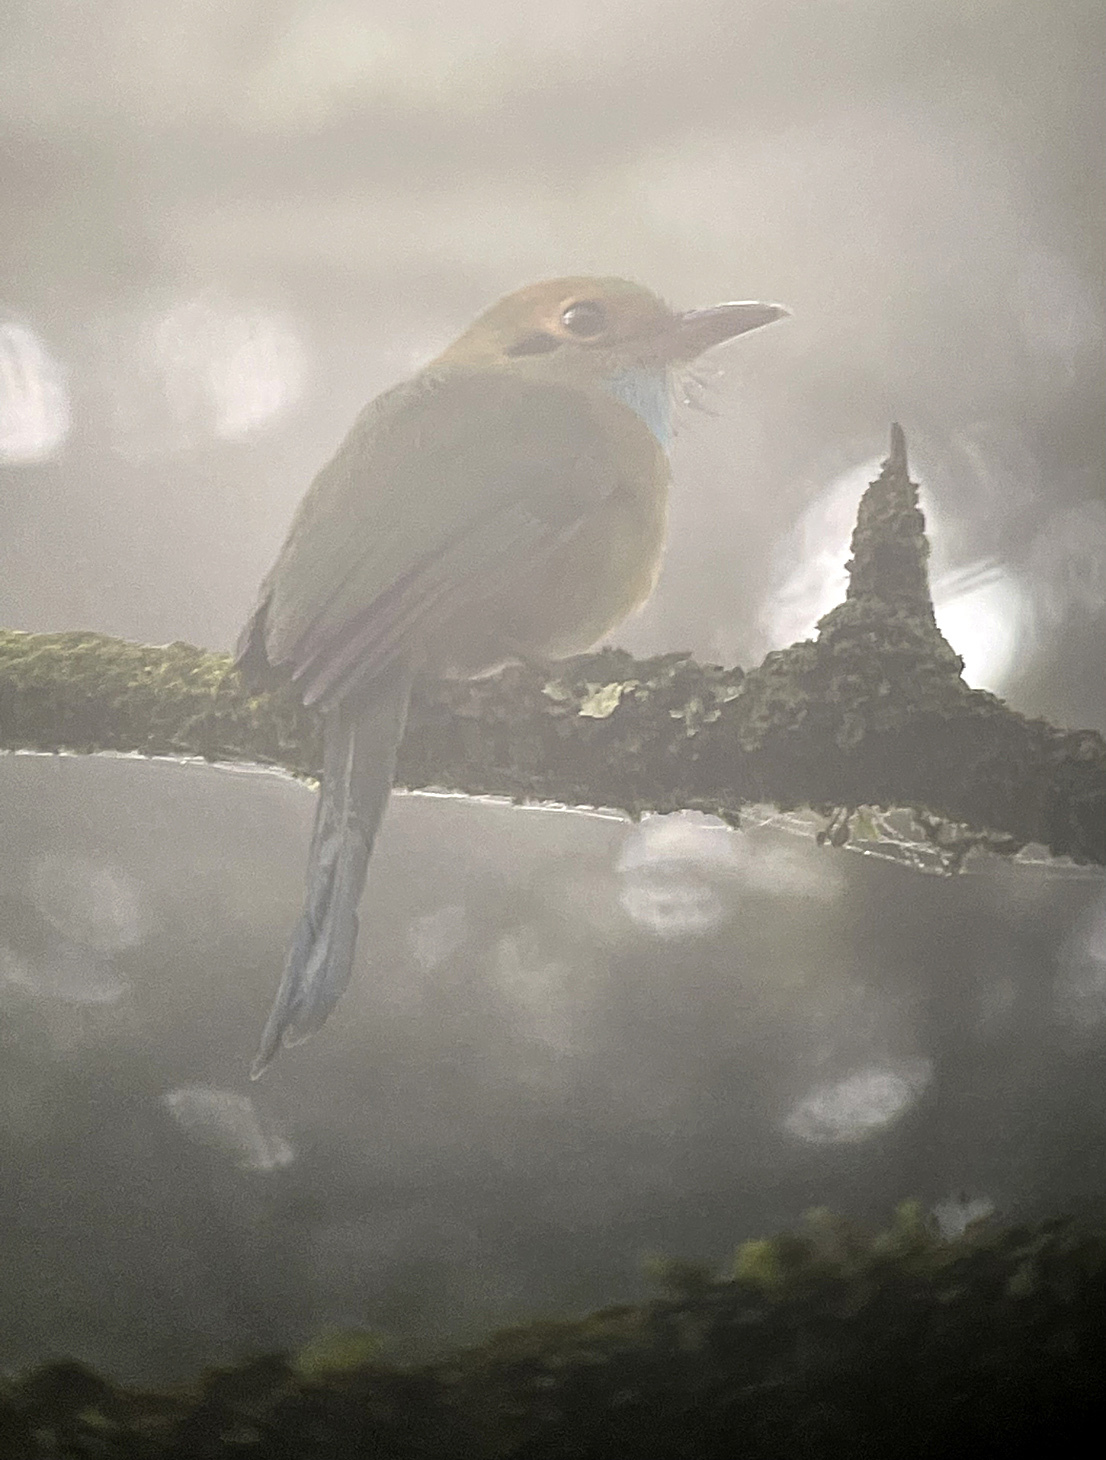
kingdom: Animalia
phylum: Chordata
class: Aves
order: Coraciiformes
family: Momotidae
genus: Aspatha
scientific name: Aspatha gularis
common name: Blue-throated motmot
